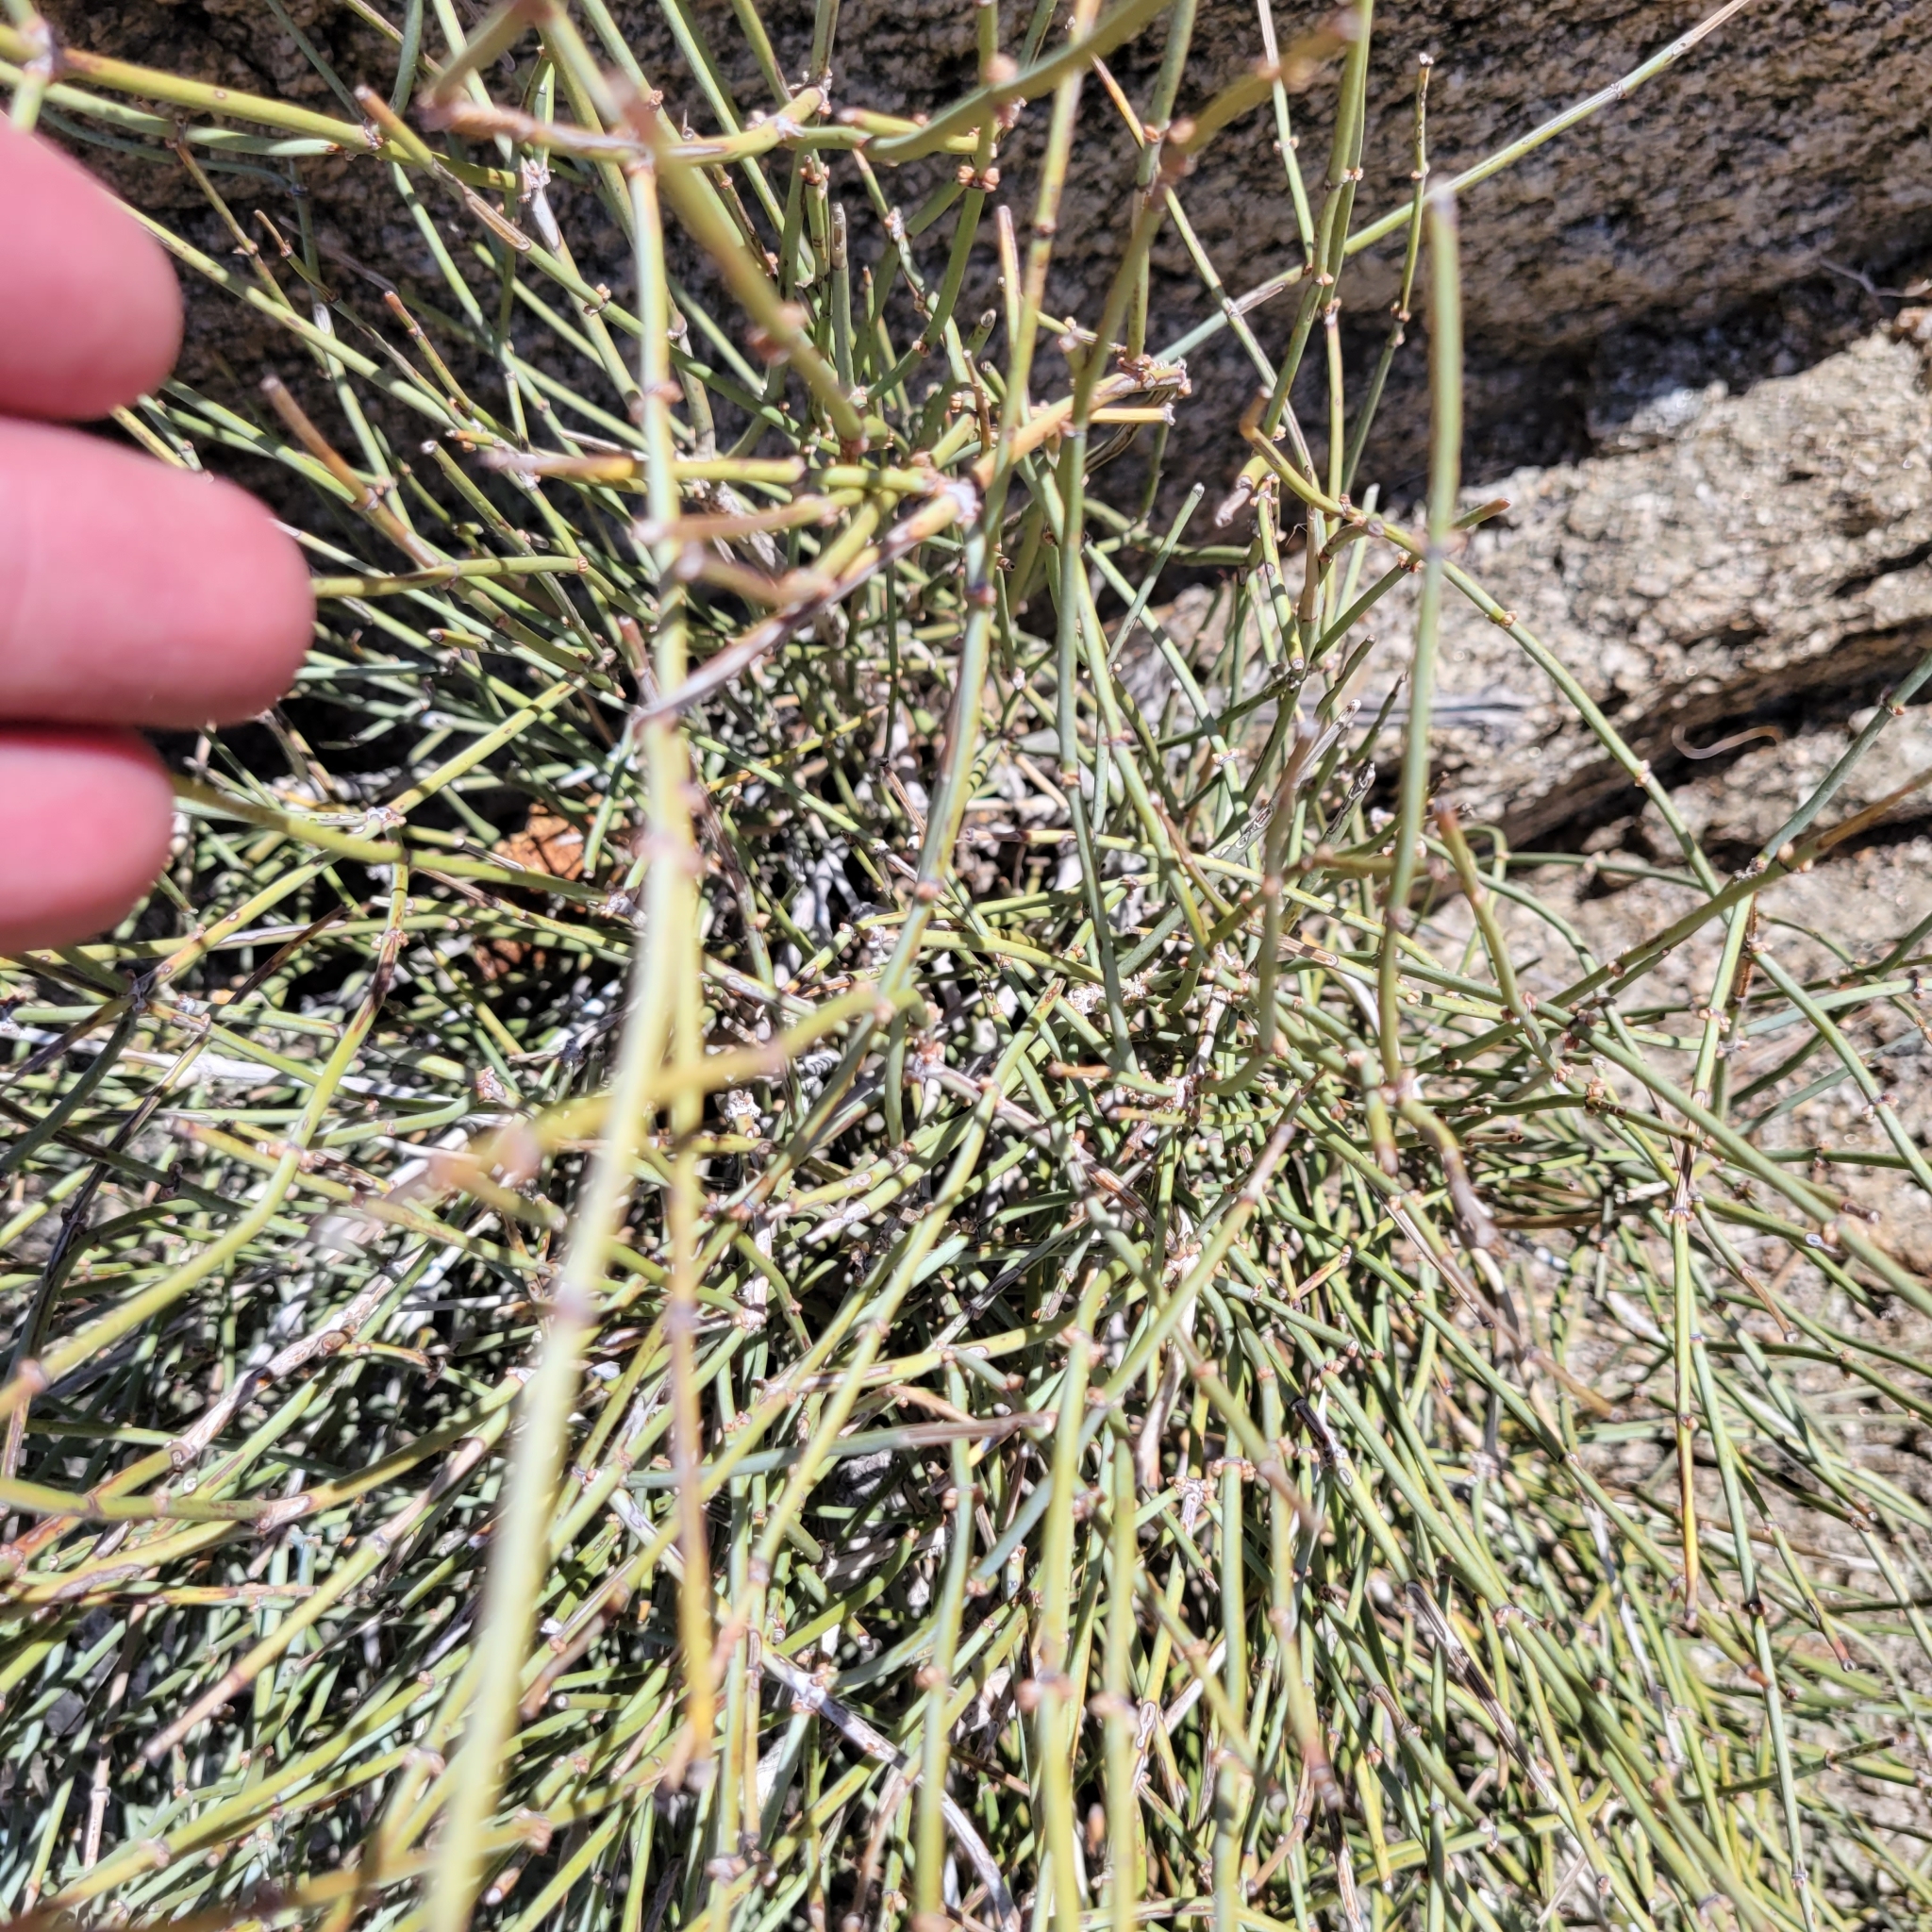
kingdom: Plantae
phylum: Tracheophyta
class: Gnetopsida
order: Ephedrales
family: Ephedraceae
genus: Ephedra
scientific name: Ephedra aspera
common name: Boundary ephedra
